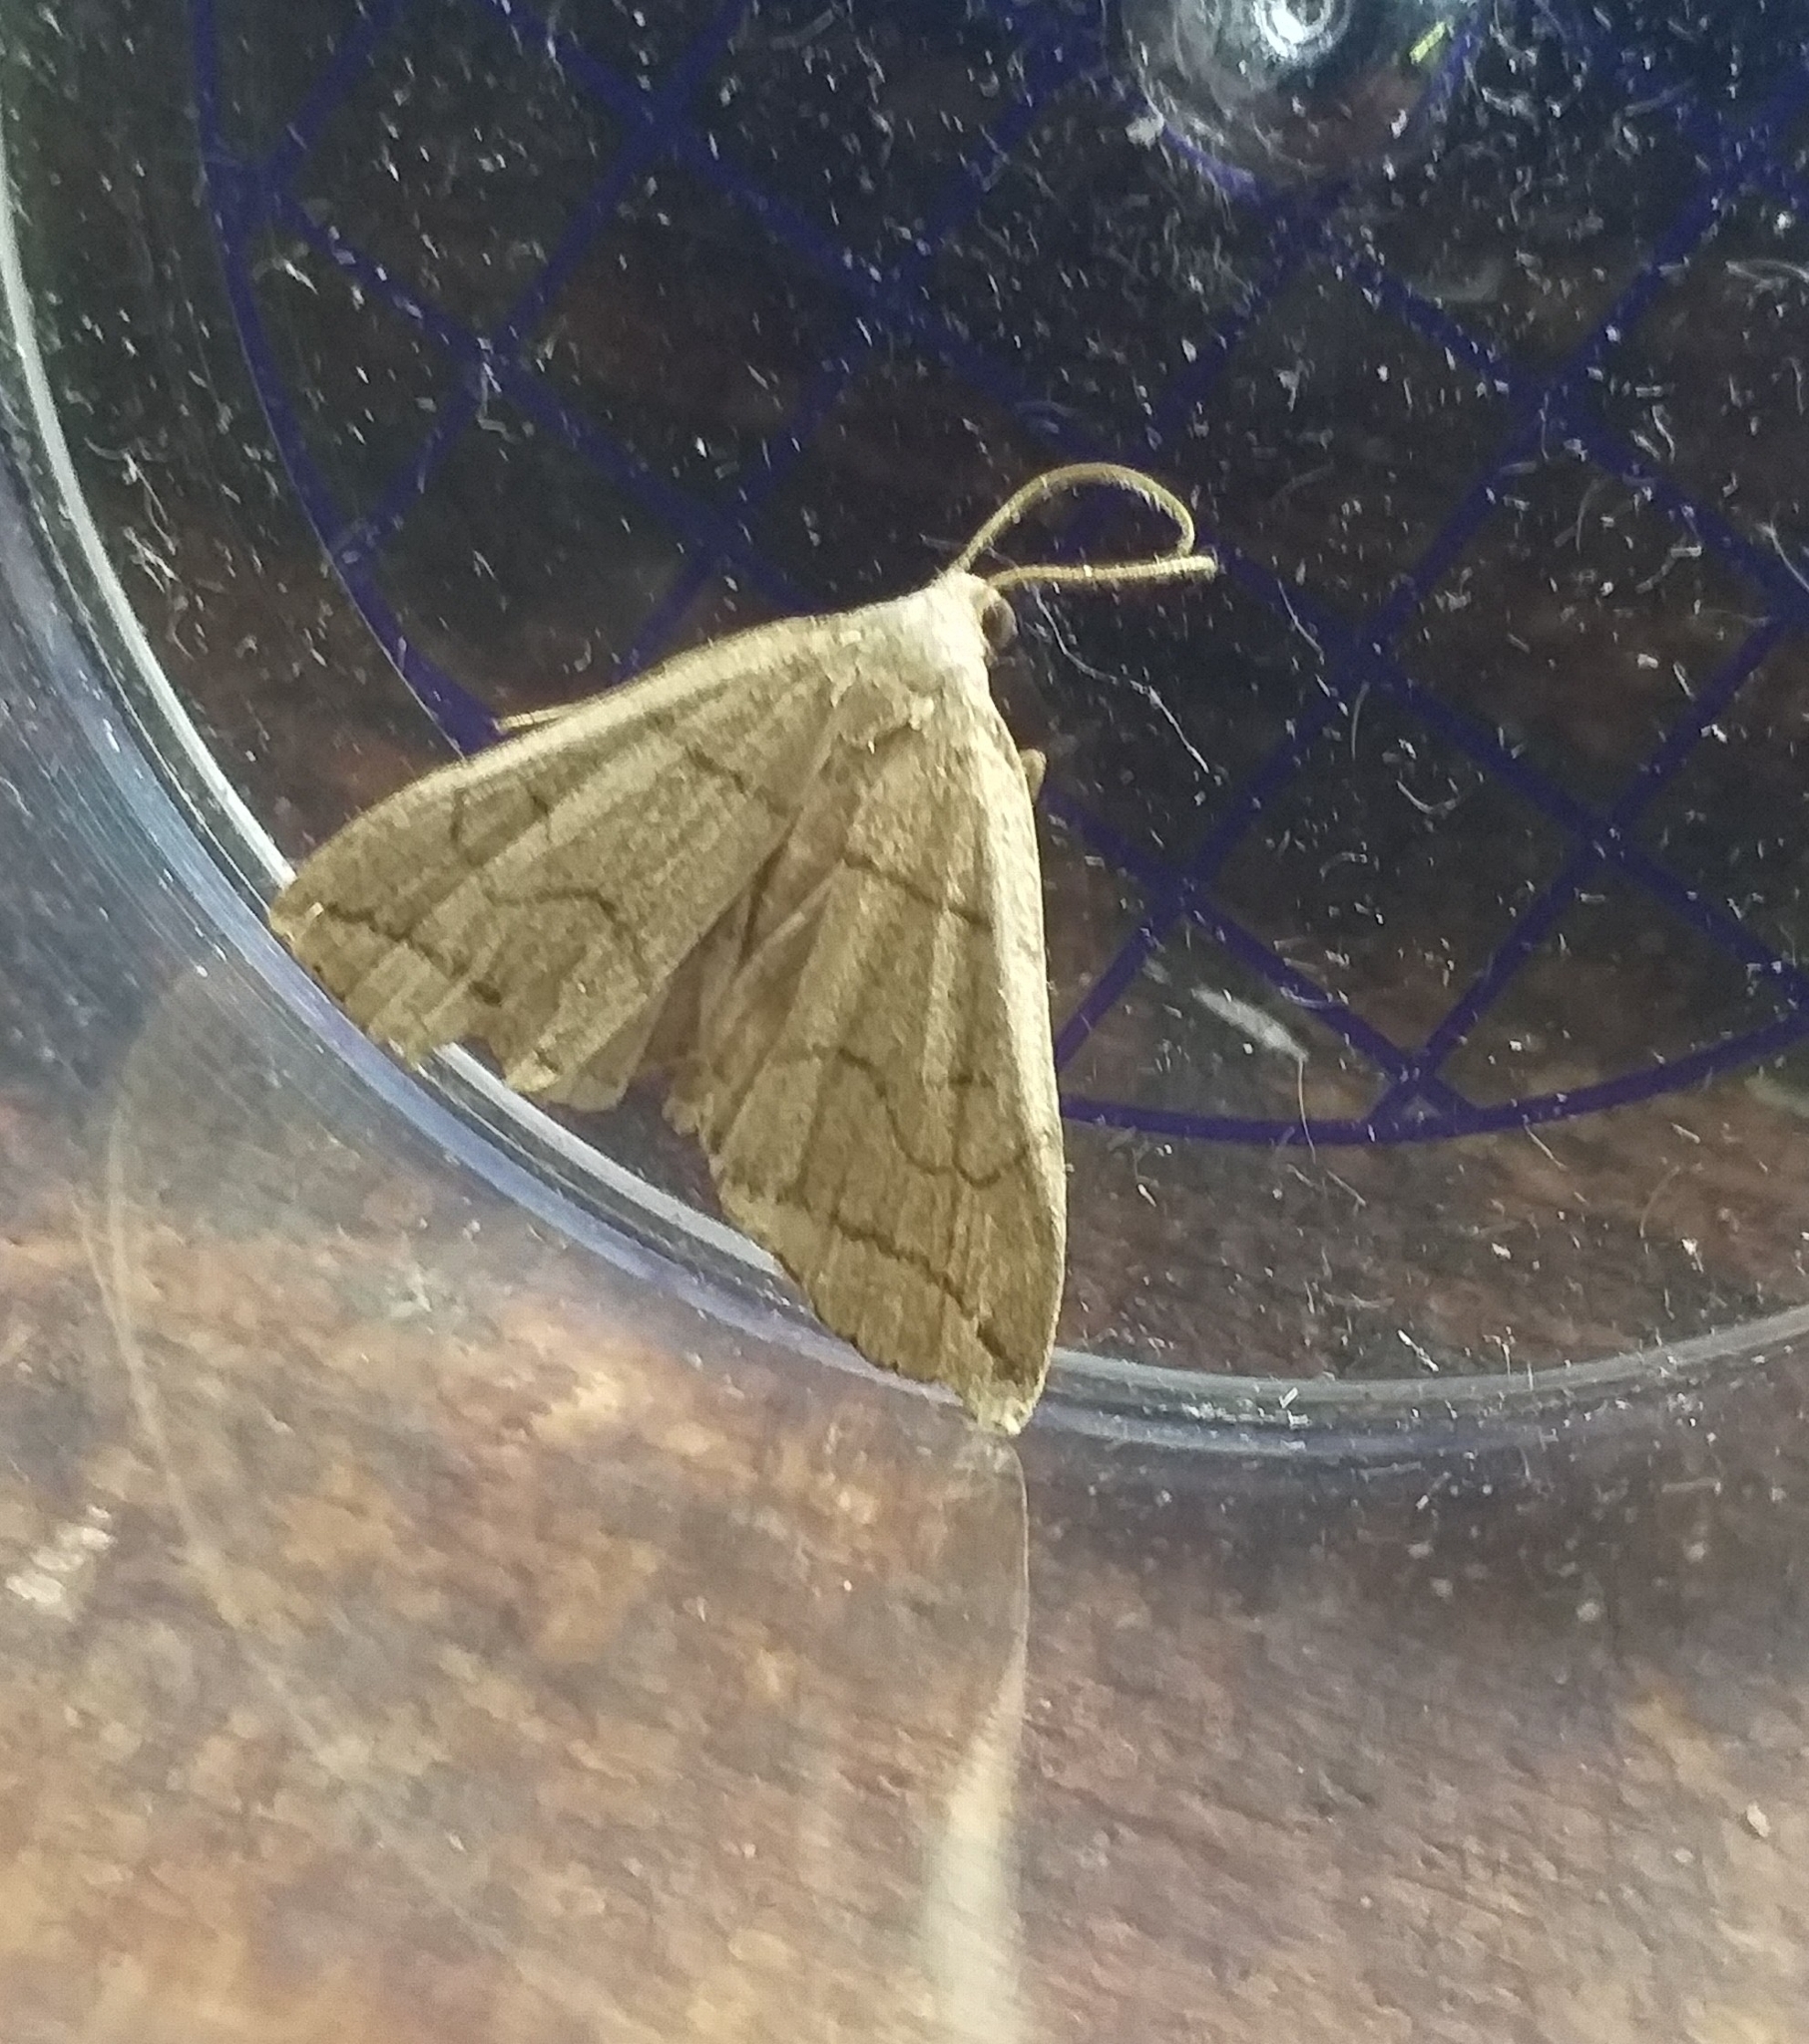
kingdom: Animalia
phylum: Arthropoda
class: Insecta
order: Lepidoptera
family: Erebidae
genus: Herminia
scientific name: Herminia grisealis
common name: Small fan-foot
